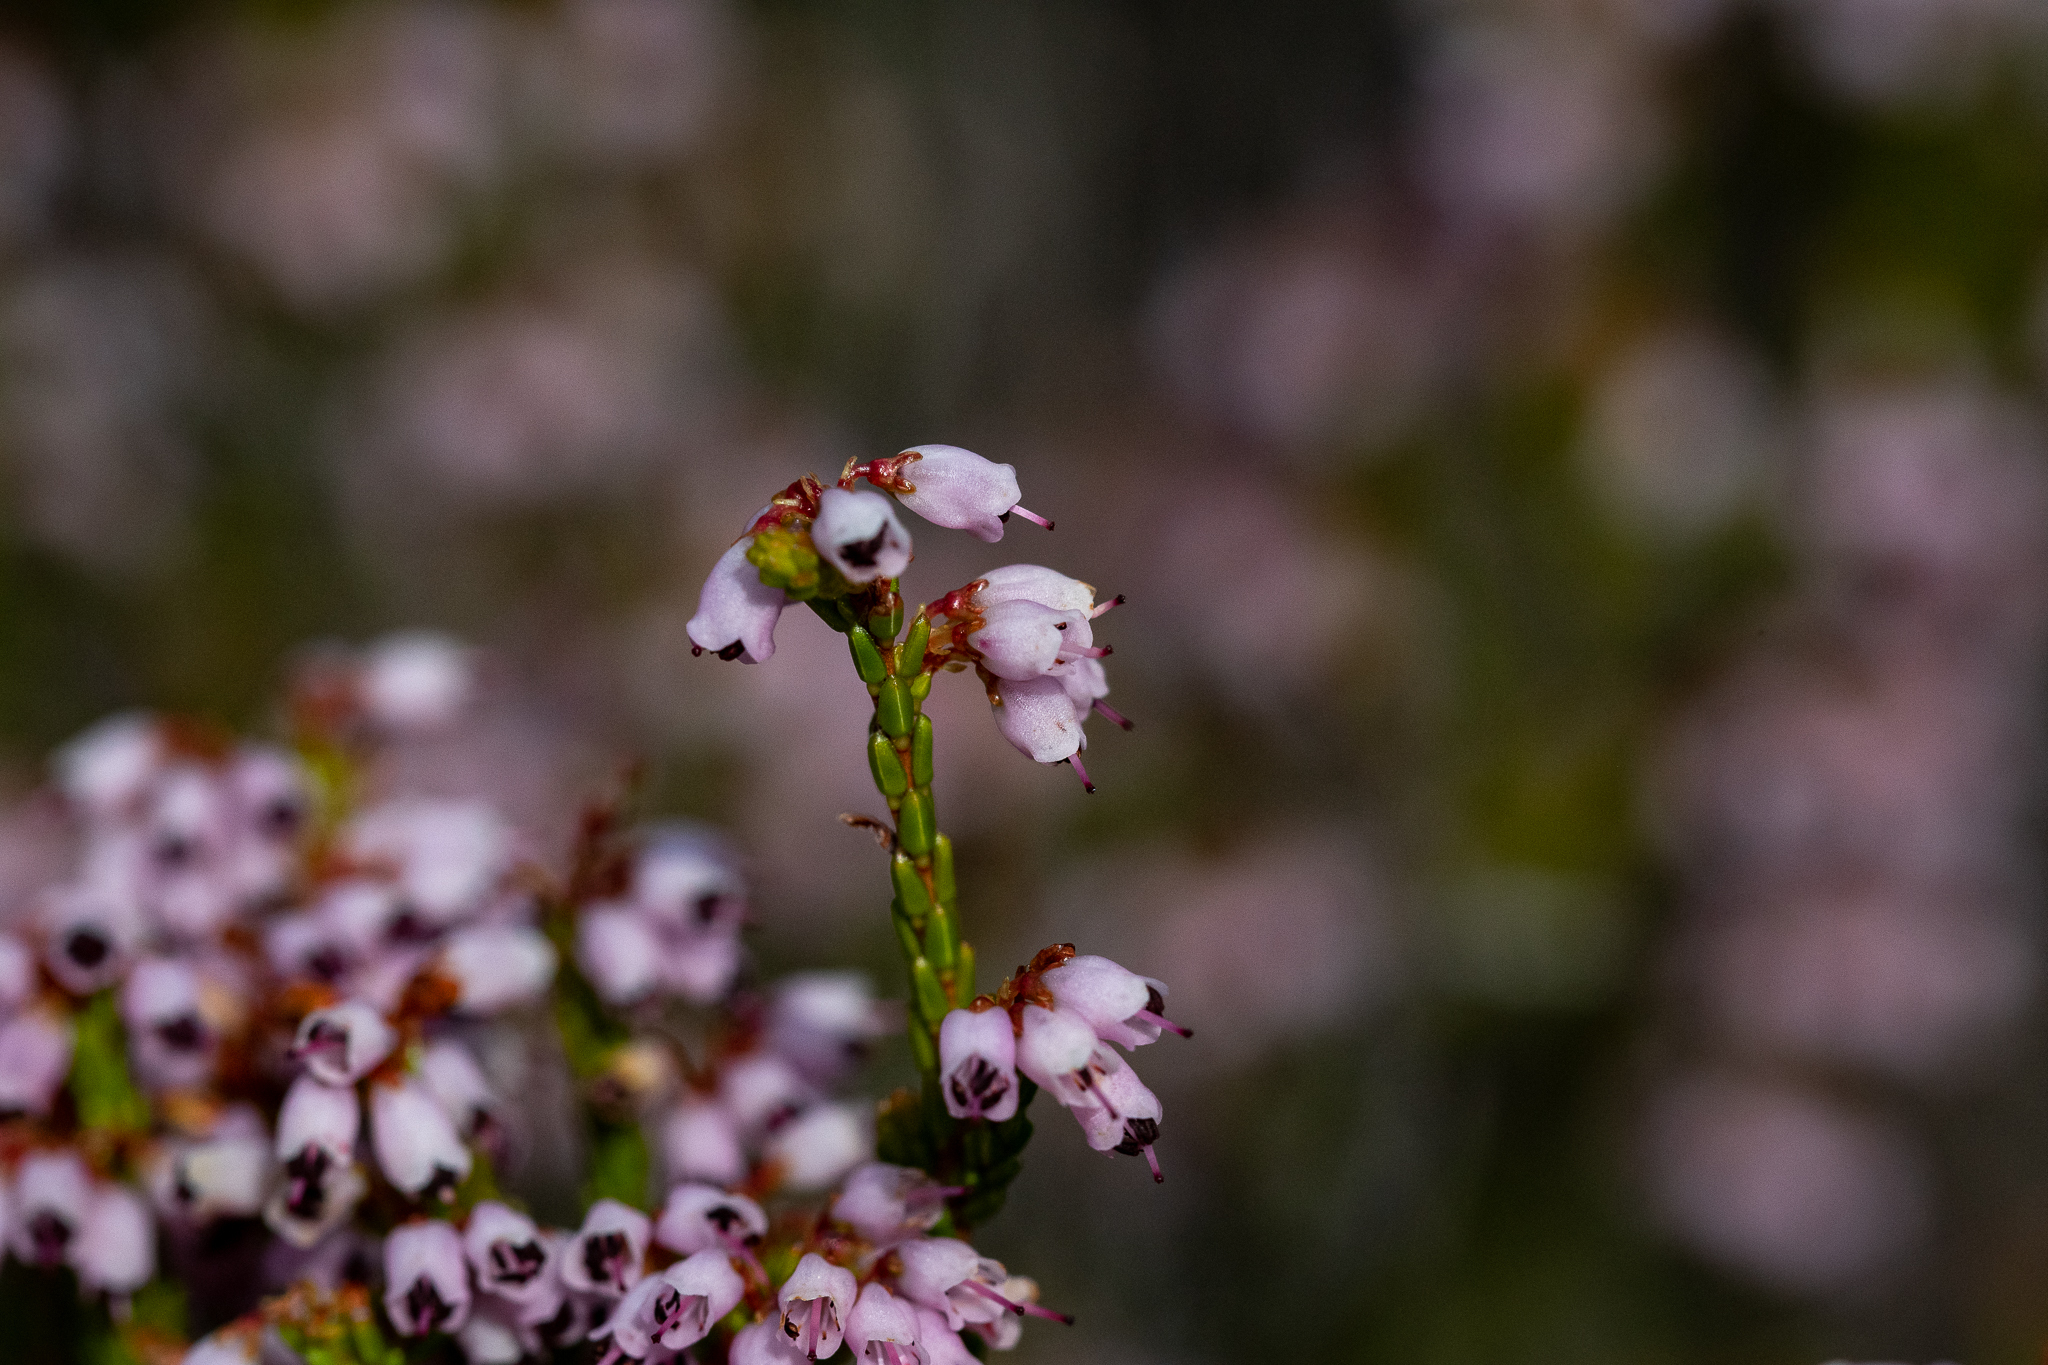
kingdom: Plantae
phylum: Tracheophyta
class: Magnoliopsida
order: Ericales
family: Ericaceae
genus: Erica
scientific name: Erica equisetifolia
